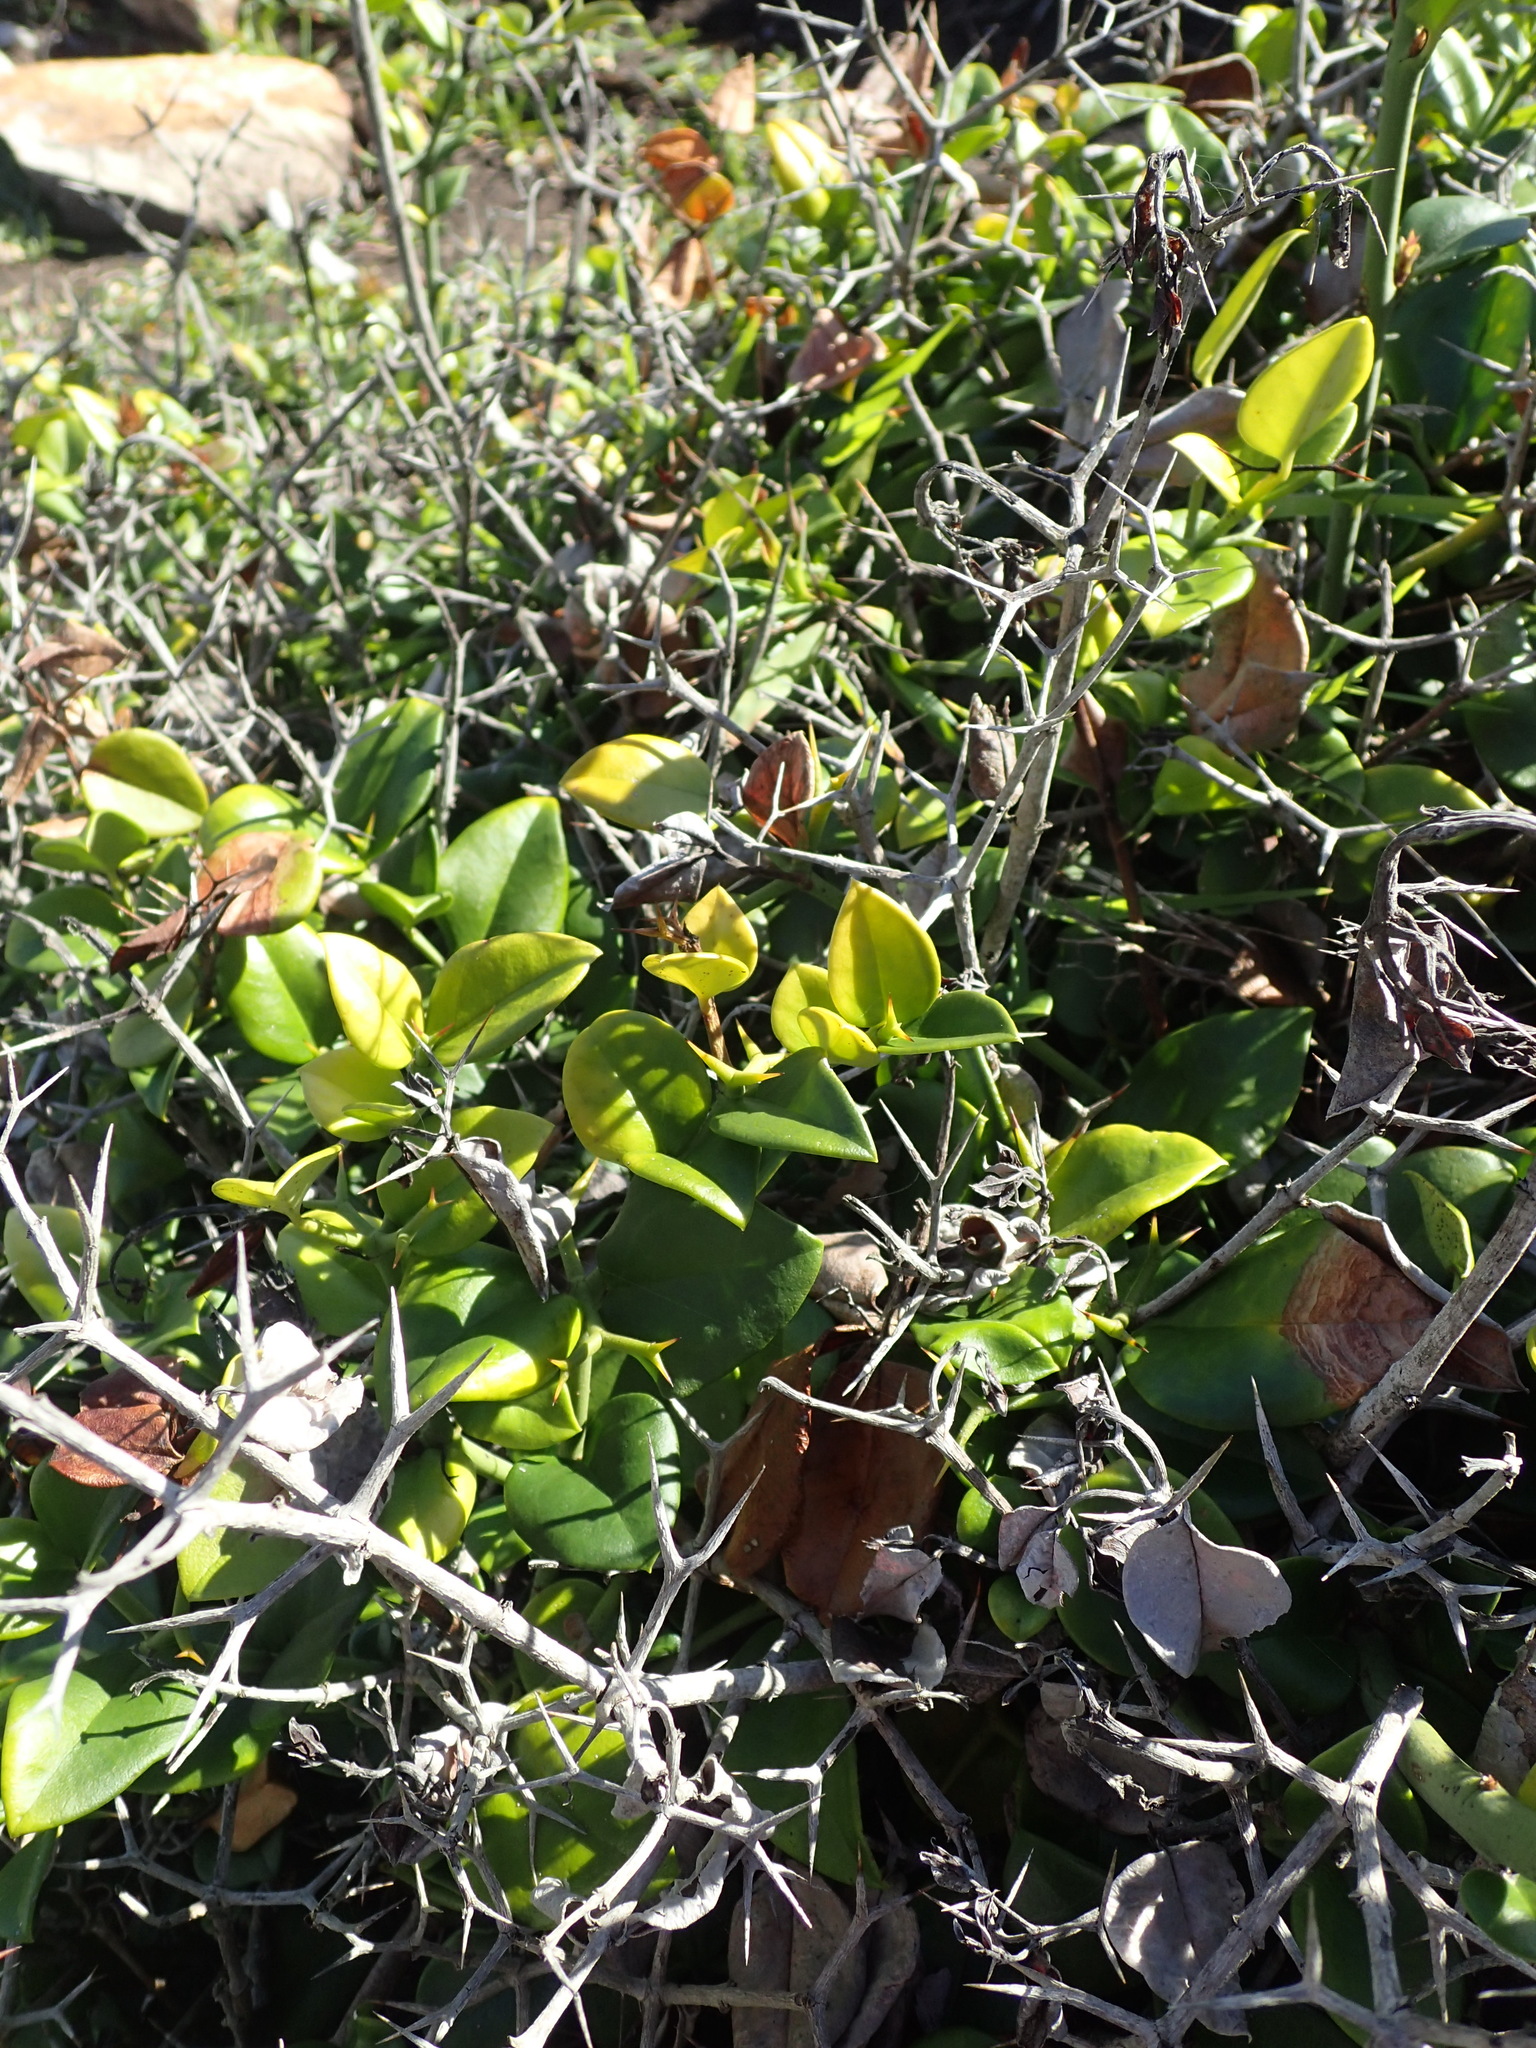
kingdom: Plantae
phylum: Tracheophyta
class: Magnoliopsida
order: Gentianales
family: Apocynaceae
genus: Carissa
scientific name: Carissa bispinosa
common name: Forest num-num
